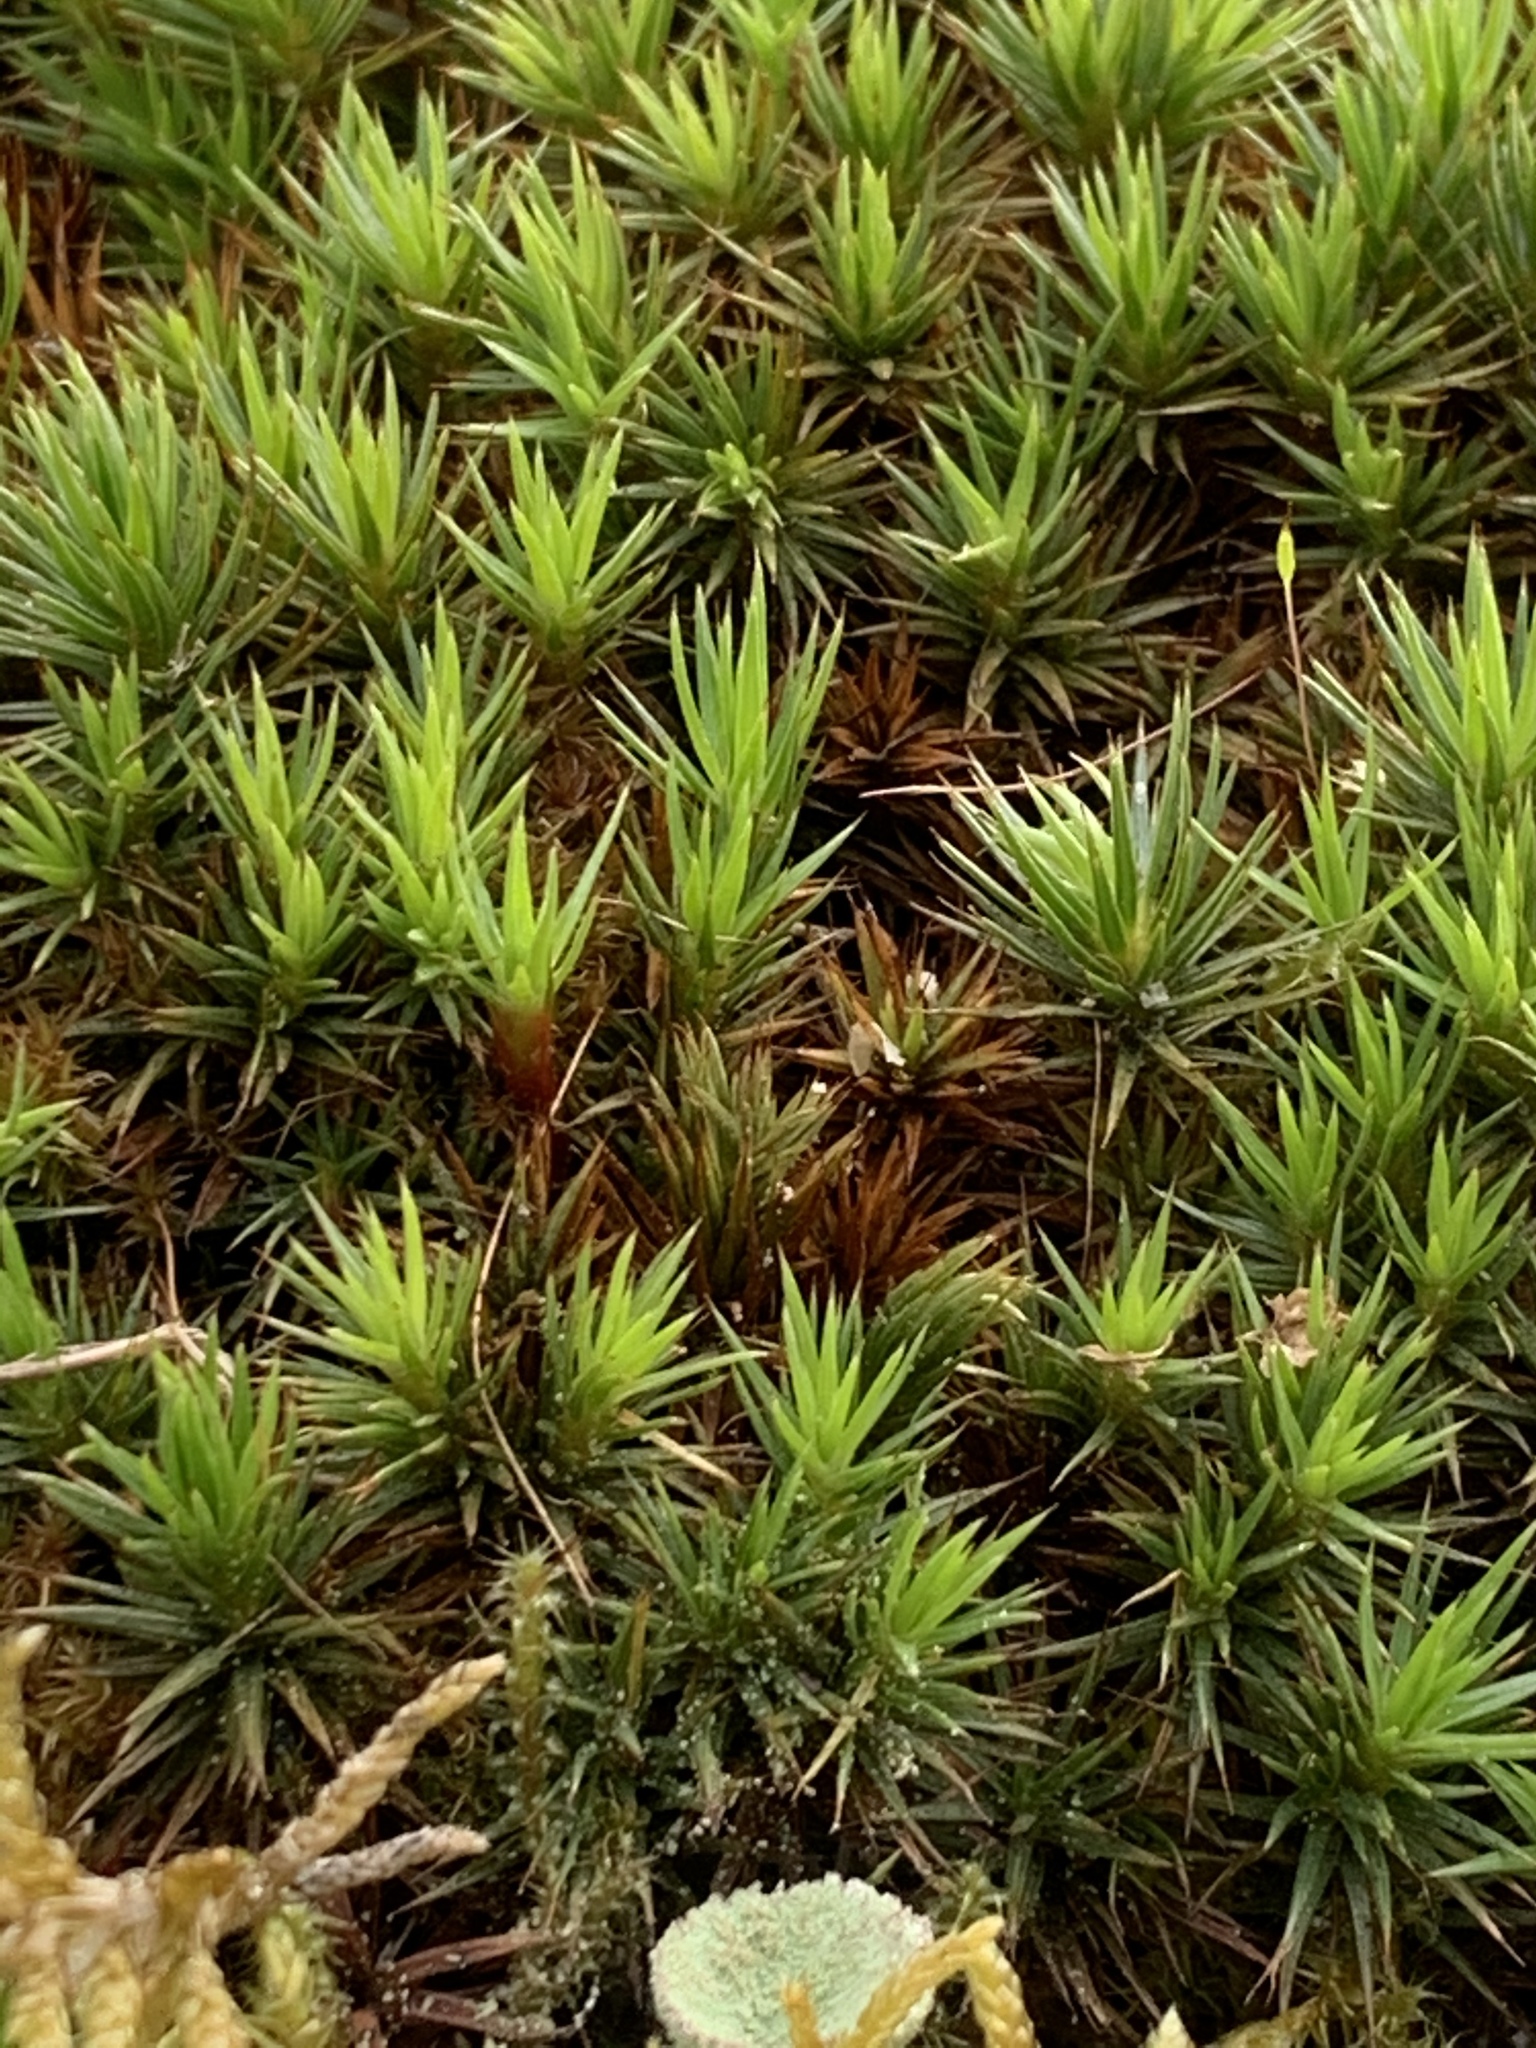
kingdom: Plantae
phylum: Bryophyta
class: Polytrichopsida
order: Polytrichales
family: Polytrichaceae
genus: Polytrichum
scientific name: Polytrichum juniperinum
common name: Juniper haircap moss
